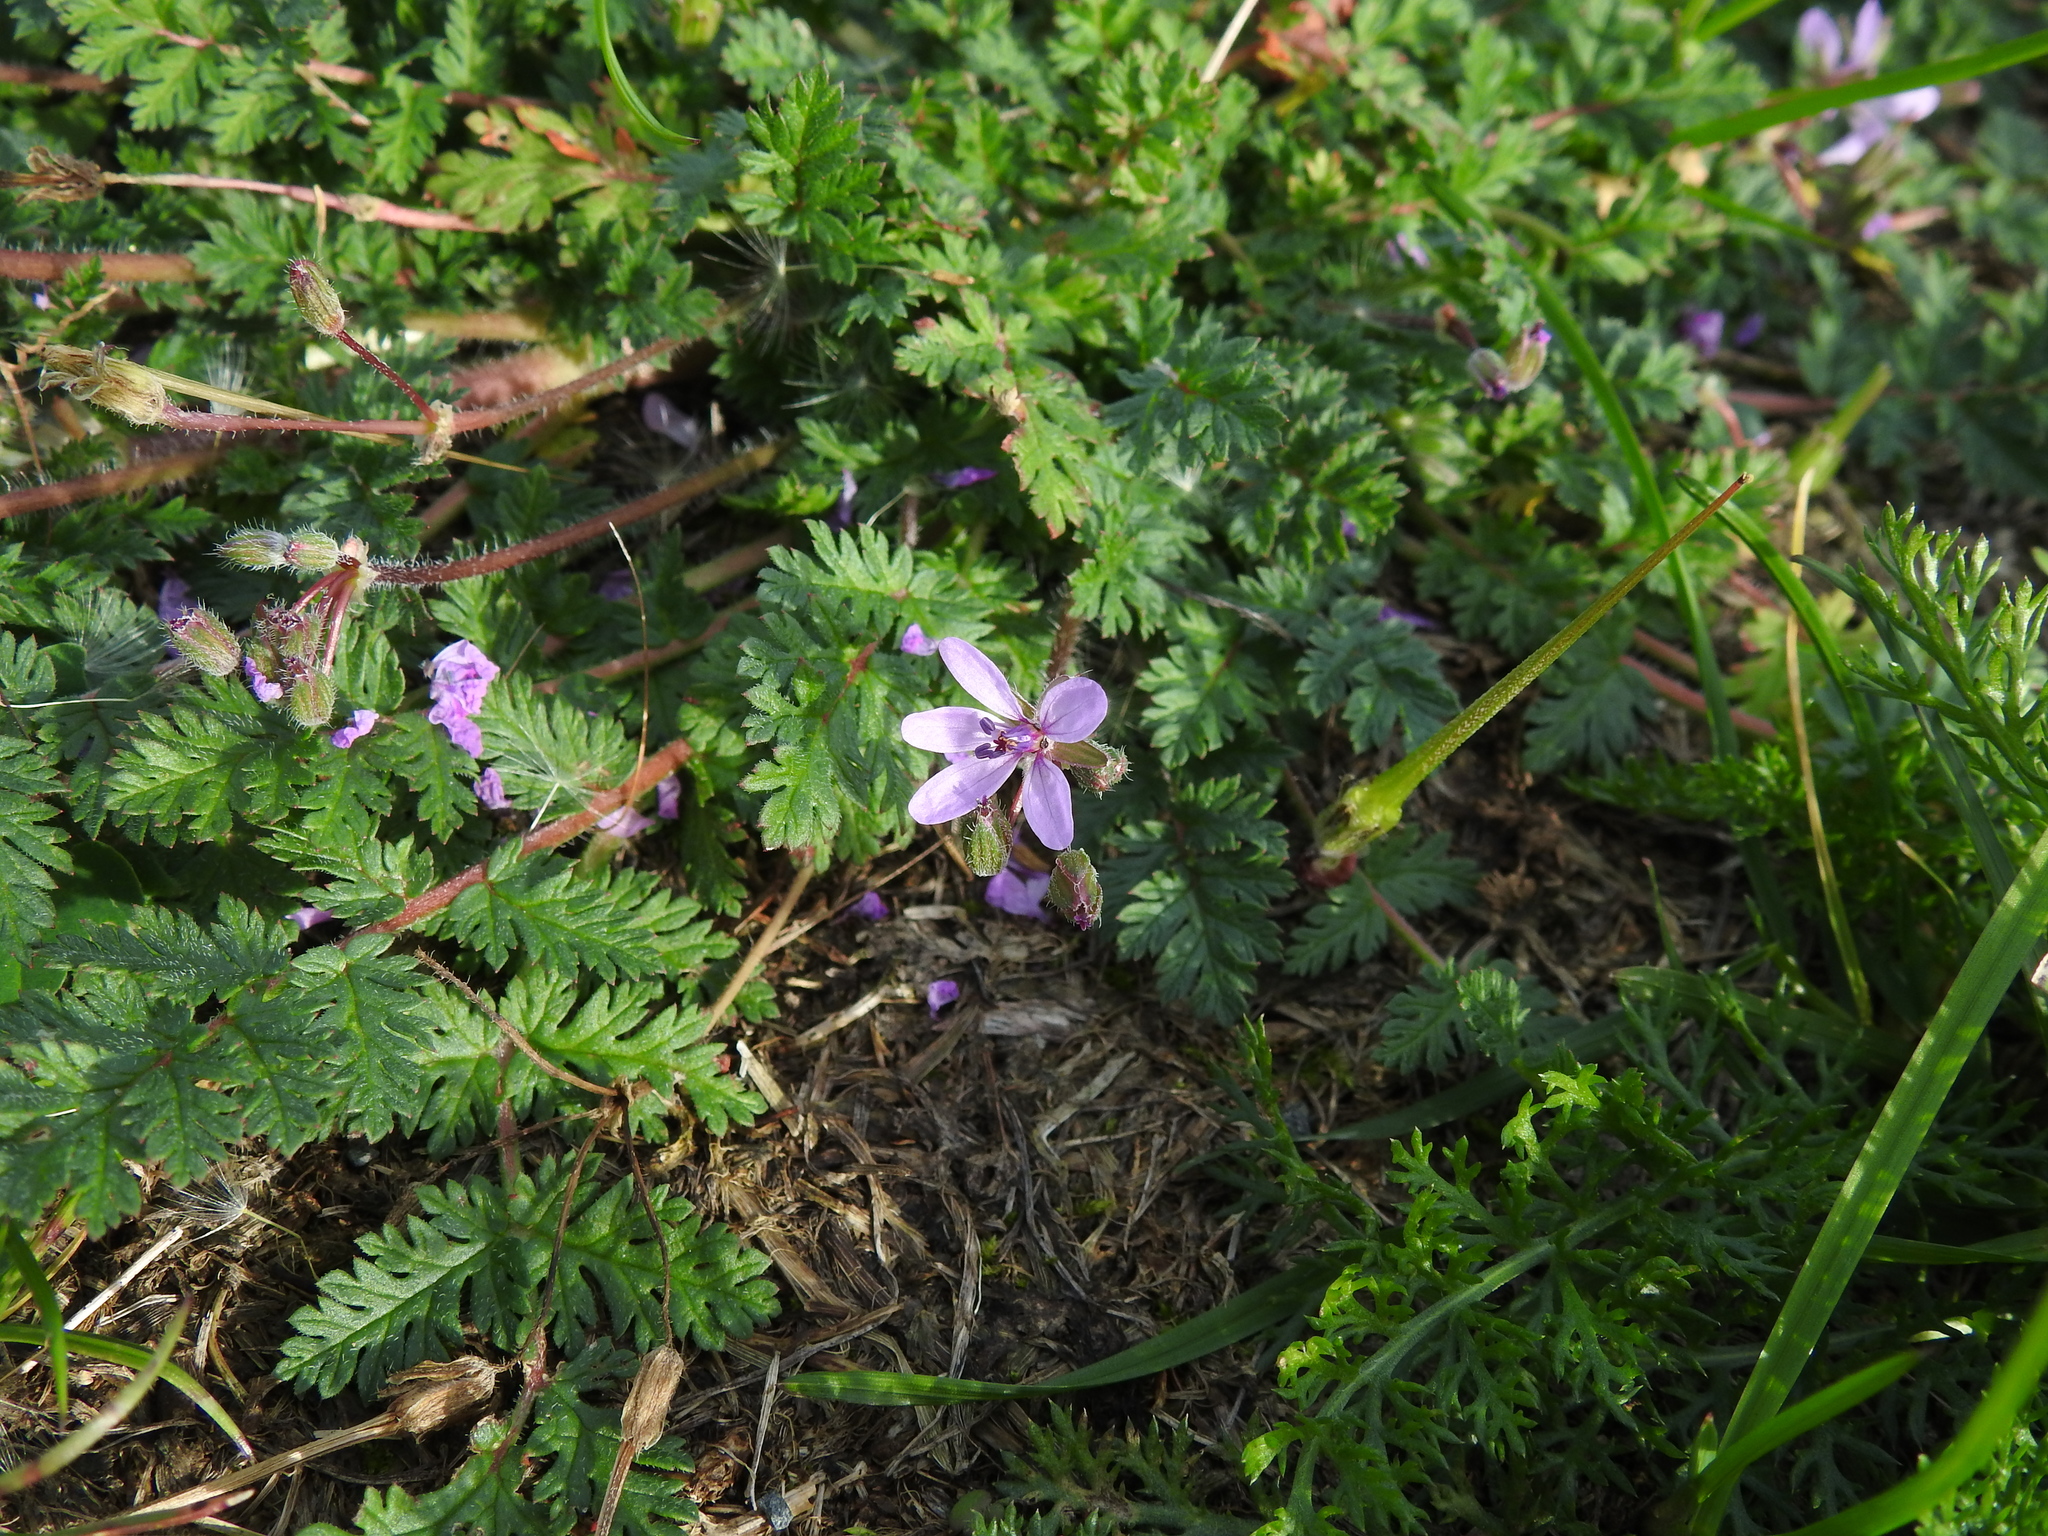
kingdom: Plantae
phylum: Tracheophyta
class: Magnoliopsida
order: Geraniales
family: Geraniaceae
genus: Erodium
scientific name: Erodium cicutarium
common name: Common stork's-bill
